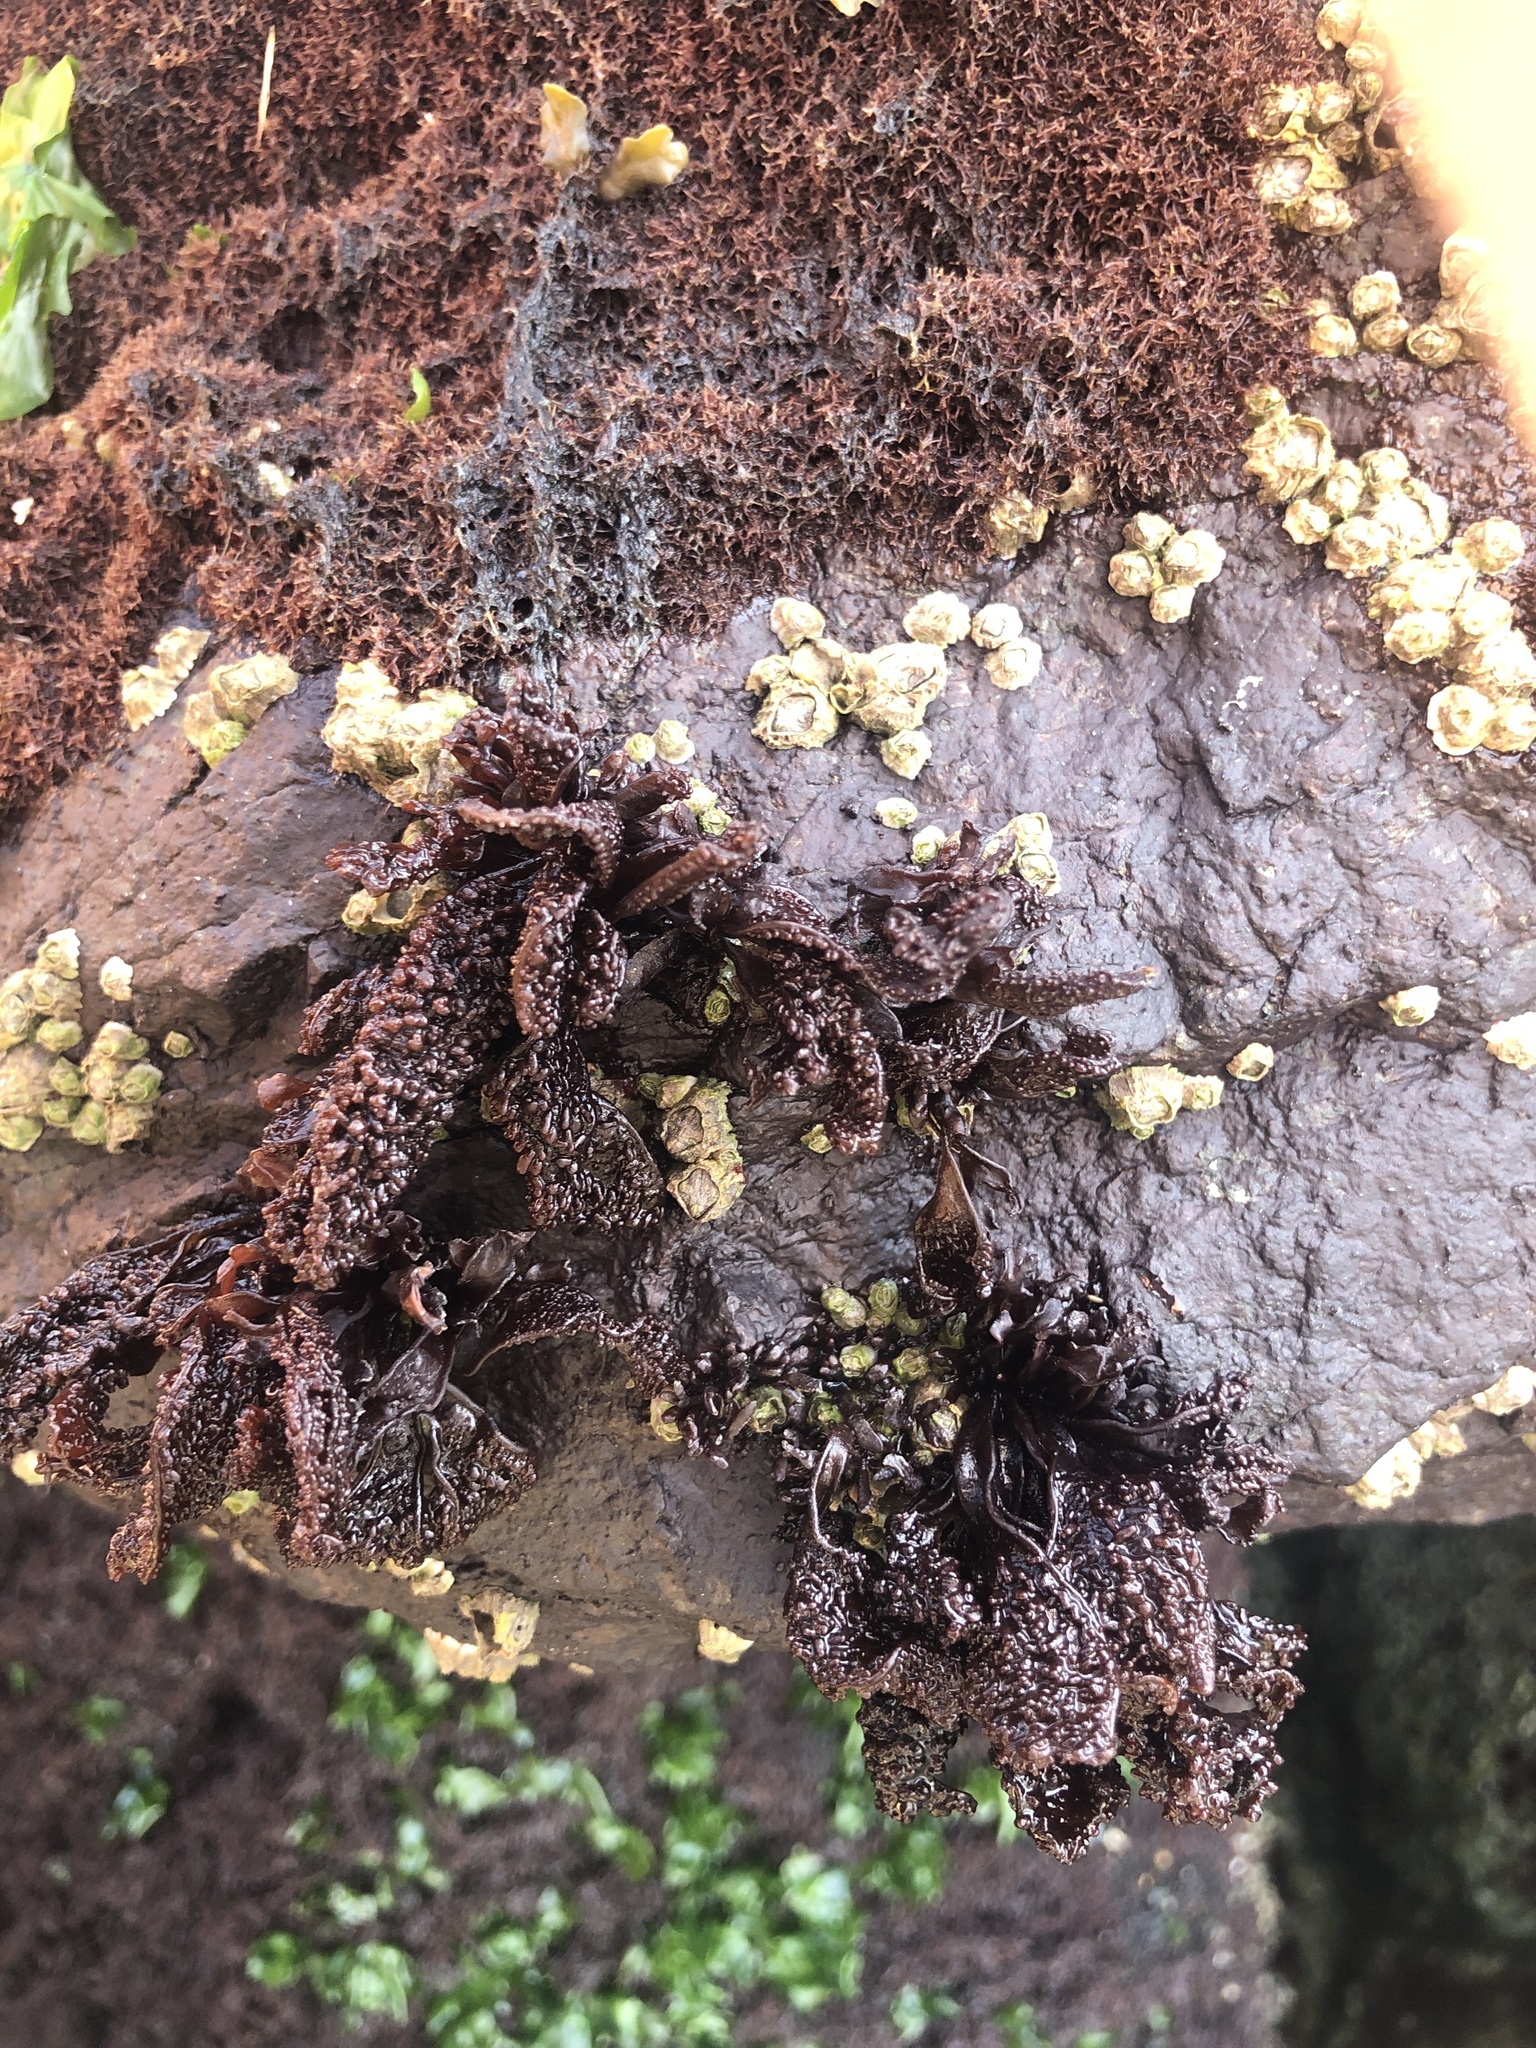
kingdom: Plantae
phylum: Rhodophyta
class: Florideophyceae
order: Gigartinales
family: Phyllophoraceae
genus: Mastocarpus
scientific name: Mastocarpus papillatus
